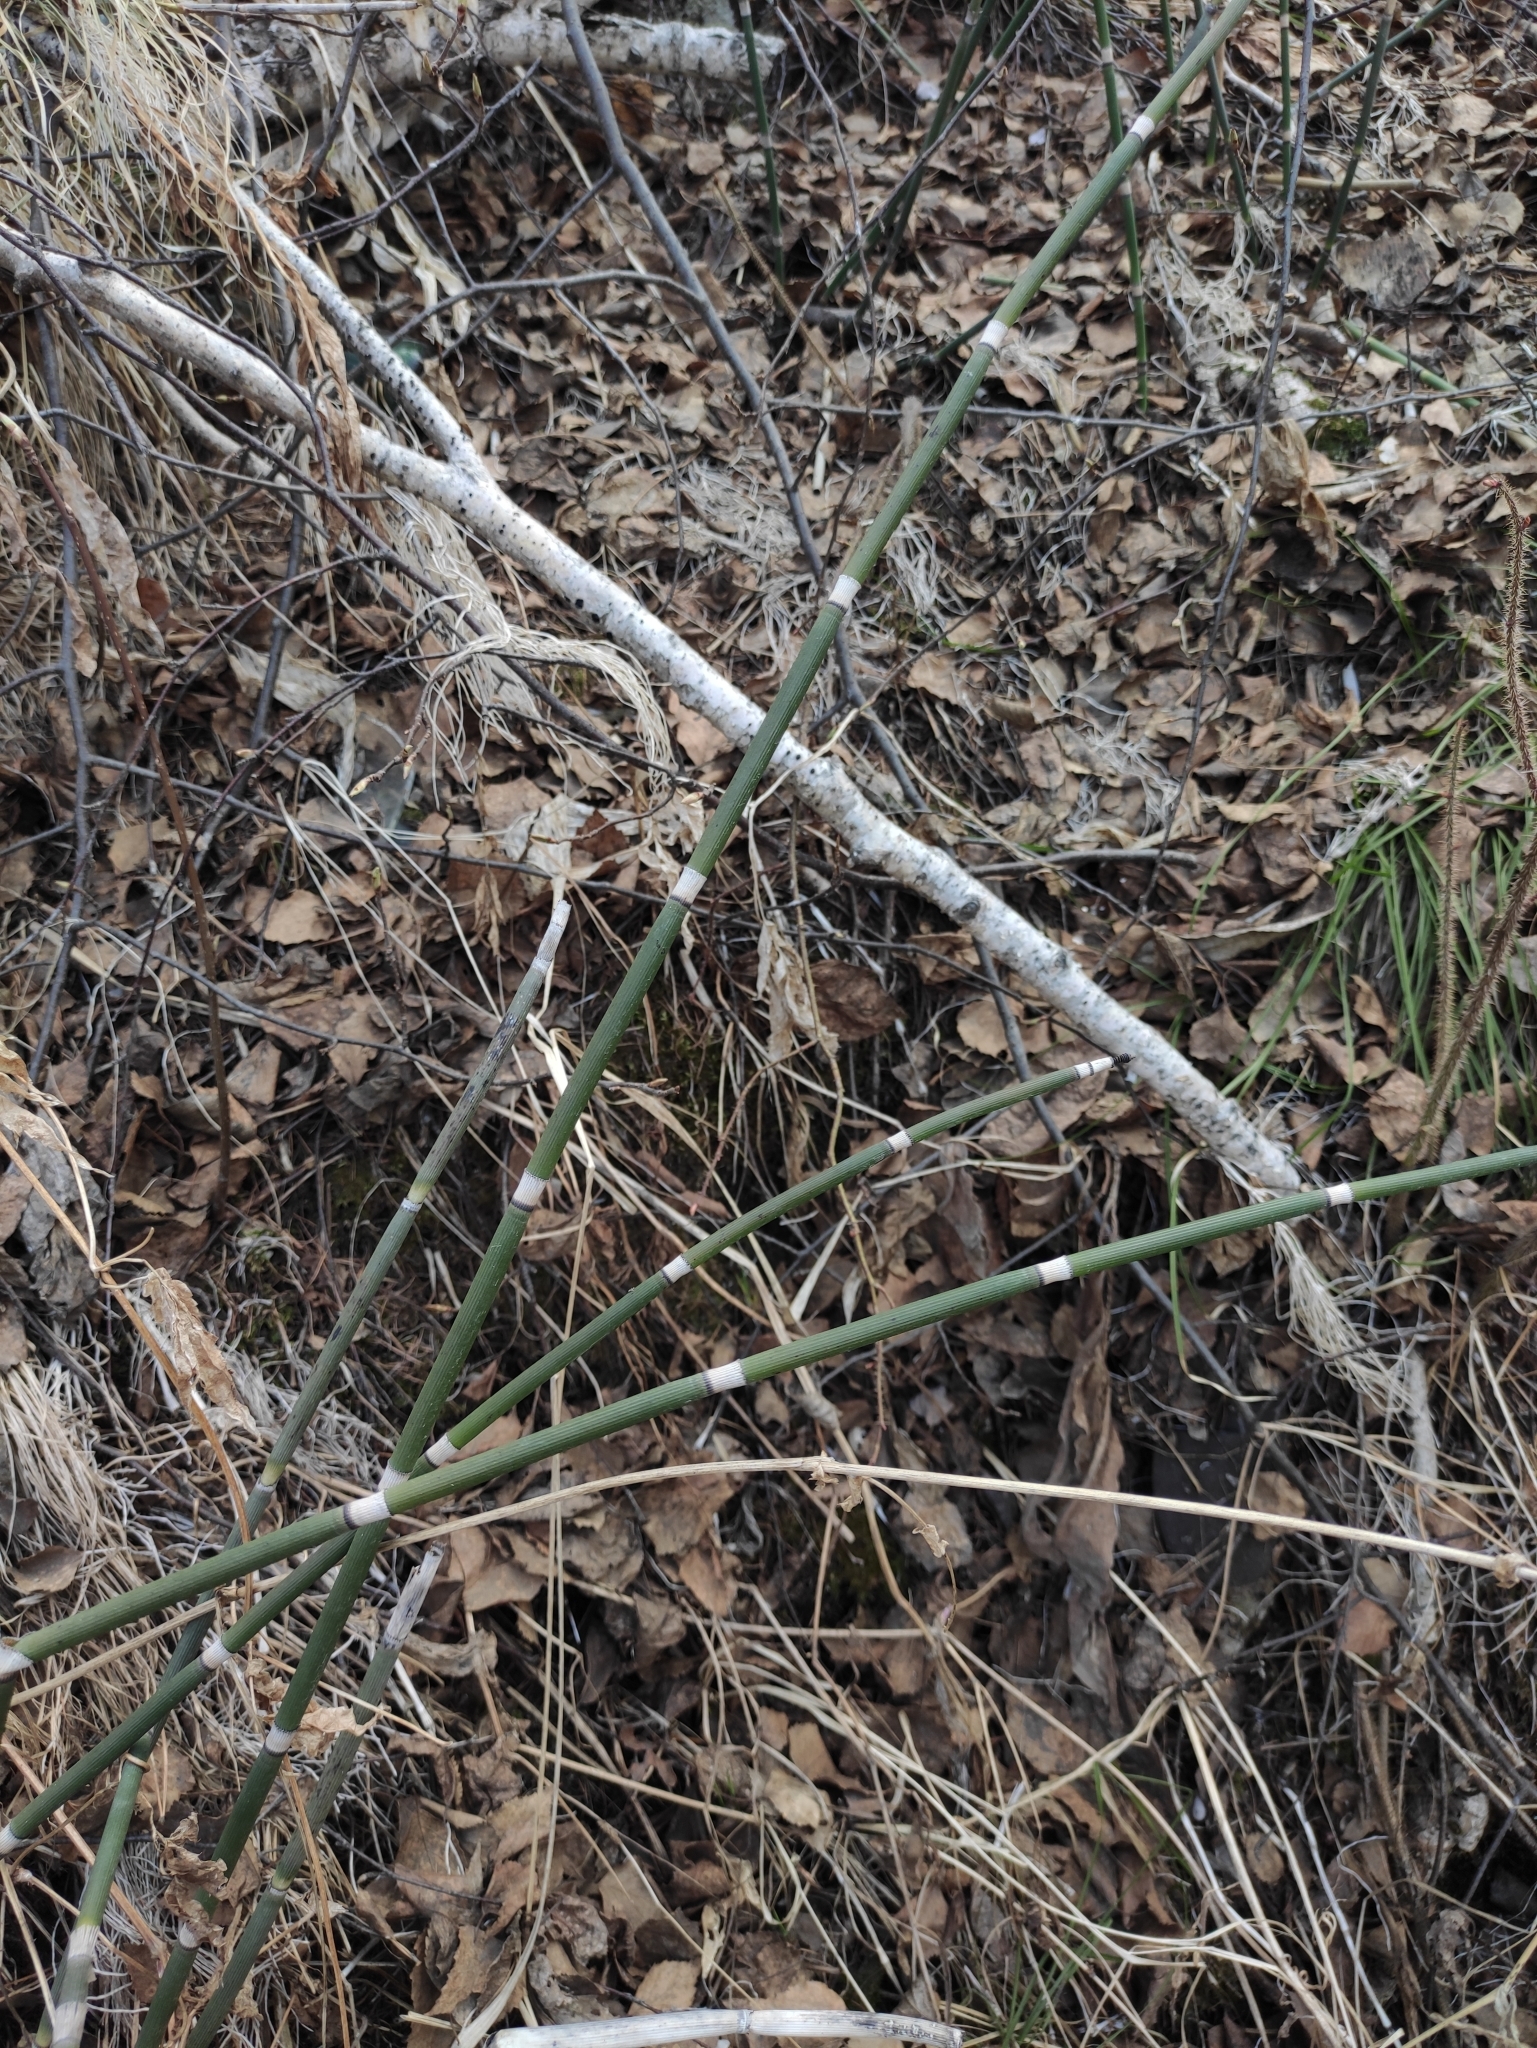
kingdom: Plantae
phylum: Tracheophyta
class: Polypodiopsida
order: Equisetales
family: Equisetaceae
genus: Equisetum
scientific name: Equisetum hyemale
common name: Rough horsetail
